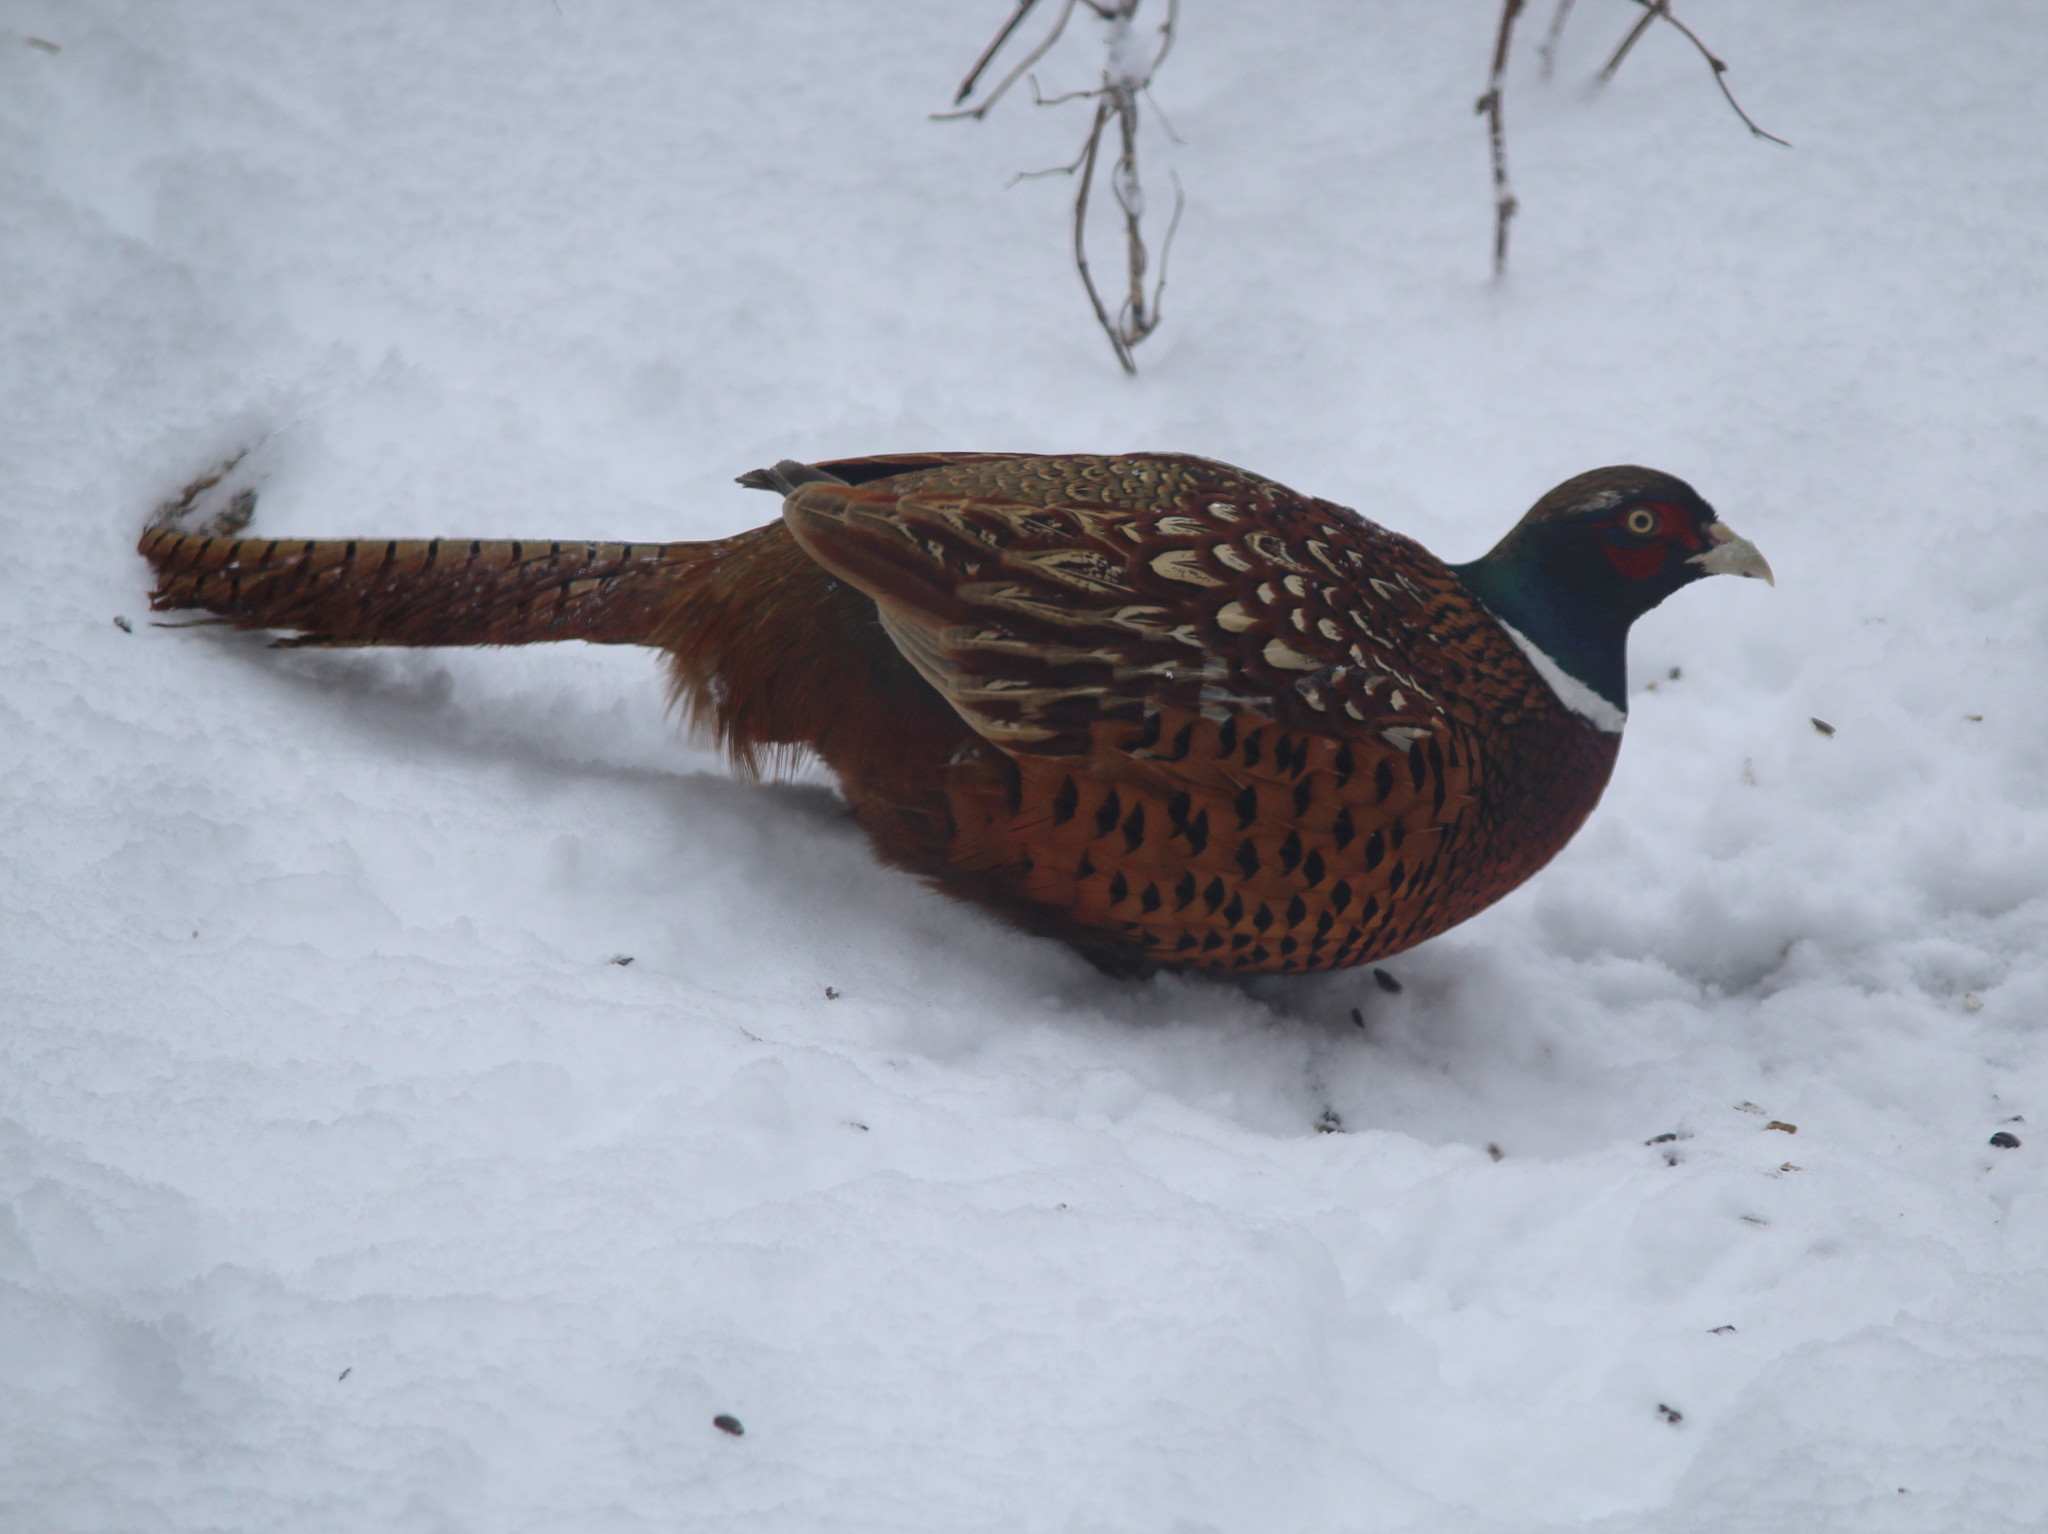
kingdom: Animalia
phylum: Chordata
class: Aves
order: Galliformes
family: Phasianidae
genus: Phasianus
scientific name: Phasianus colchicus
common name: Common pheasant
